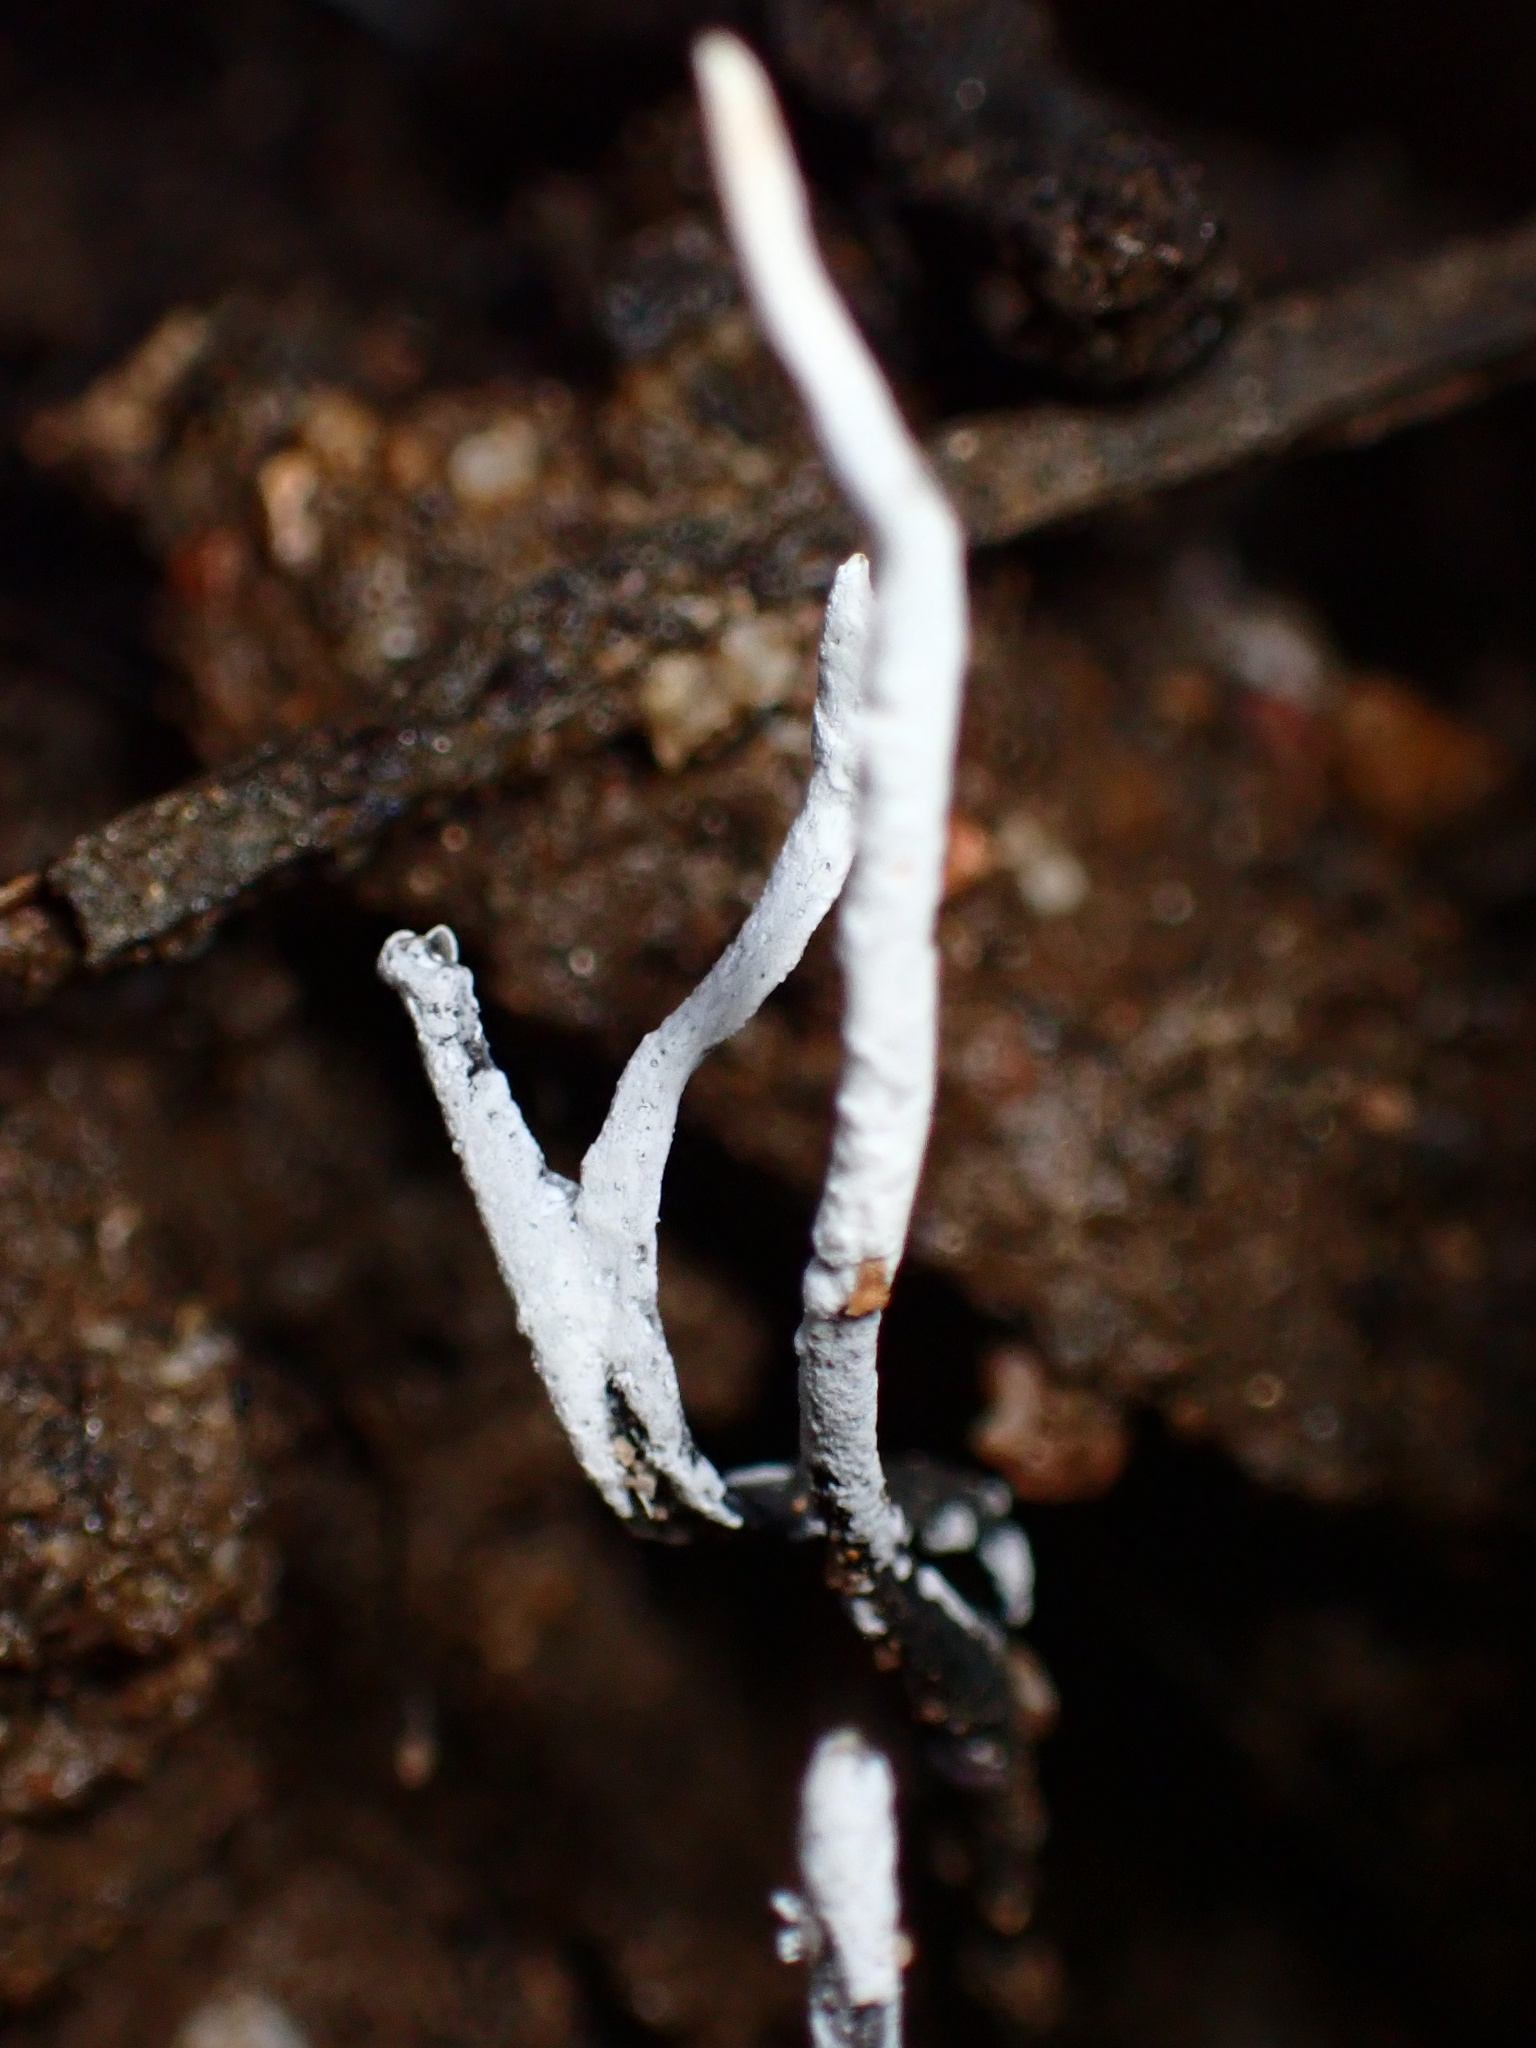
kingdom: Fungi
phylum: Ascomycota
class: Sordariomycetes
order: Xylariales
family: Xylariaceae
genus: Xylaria
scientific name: Xylaria hypoxylon
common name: Candle-snuff fungus
